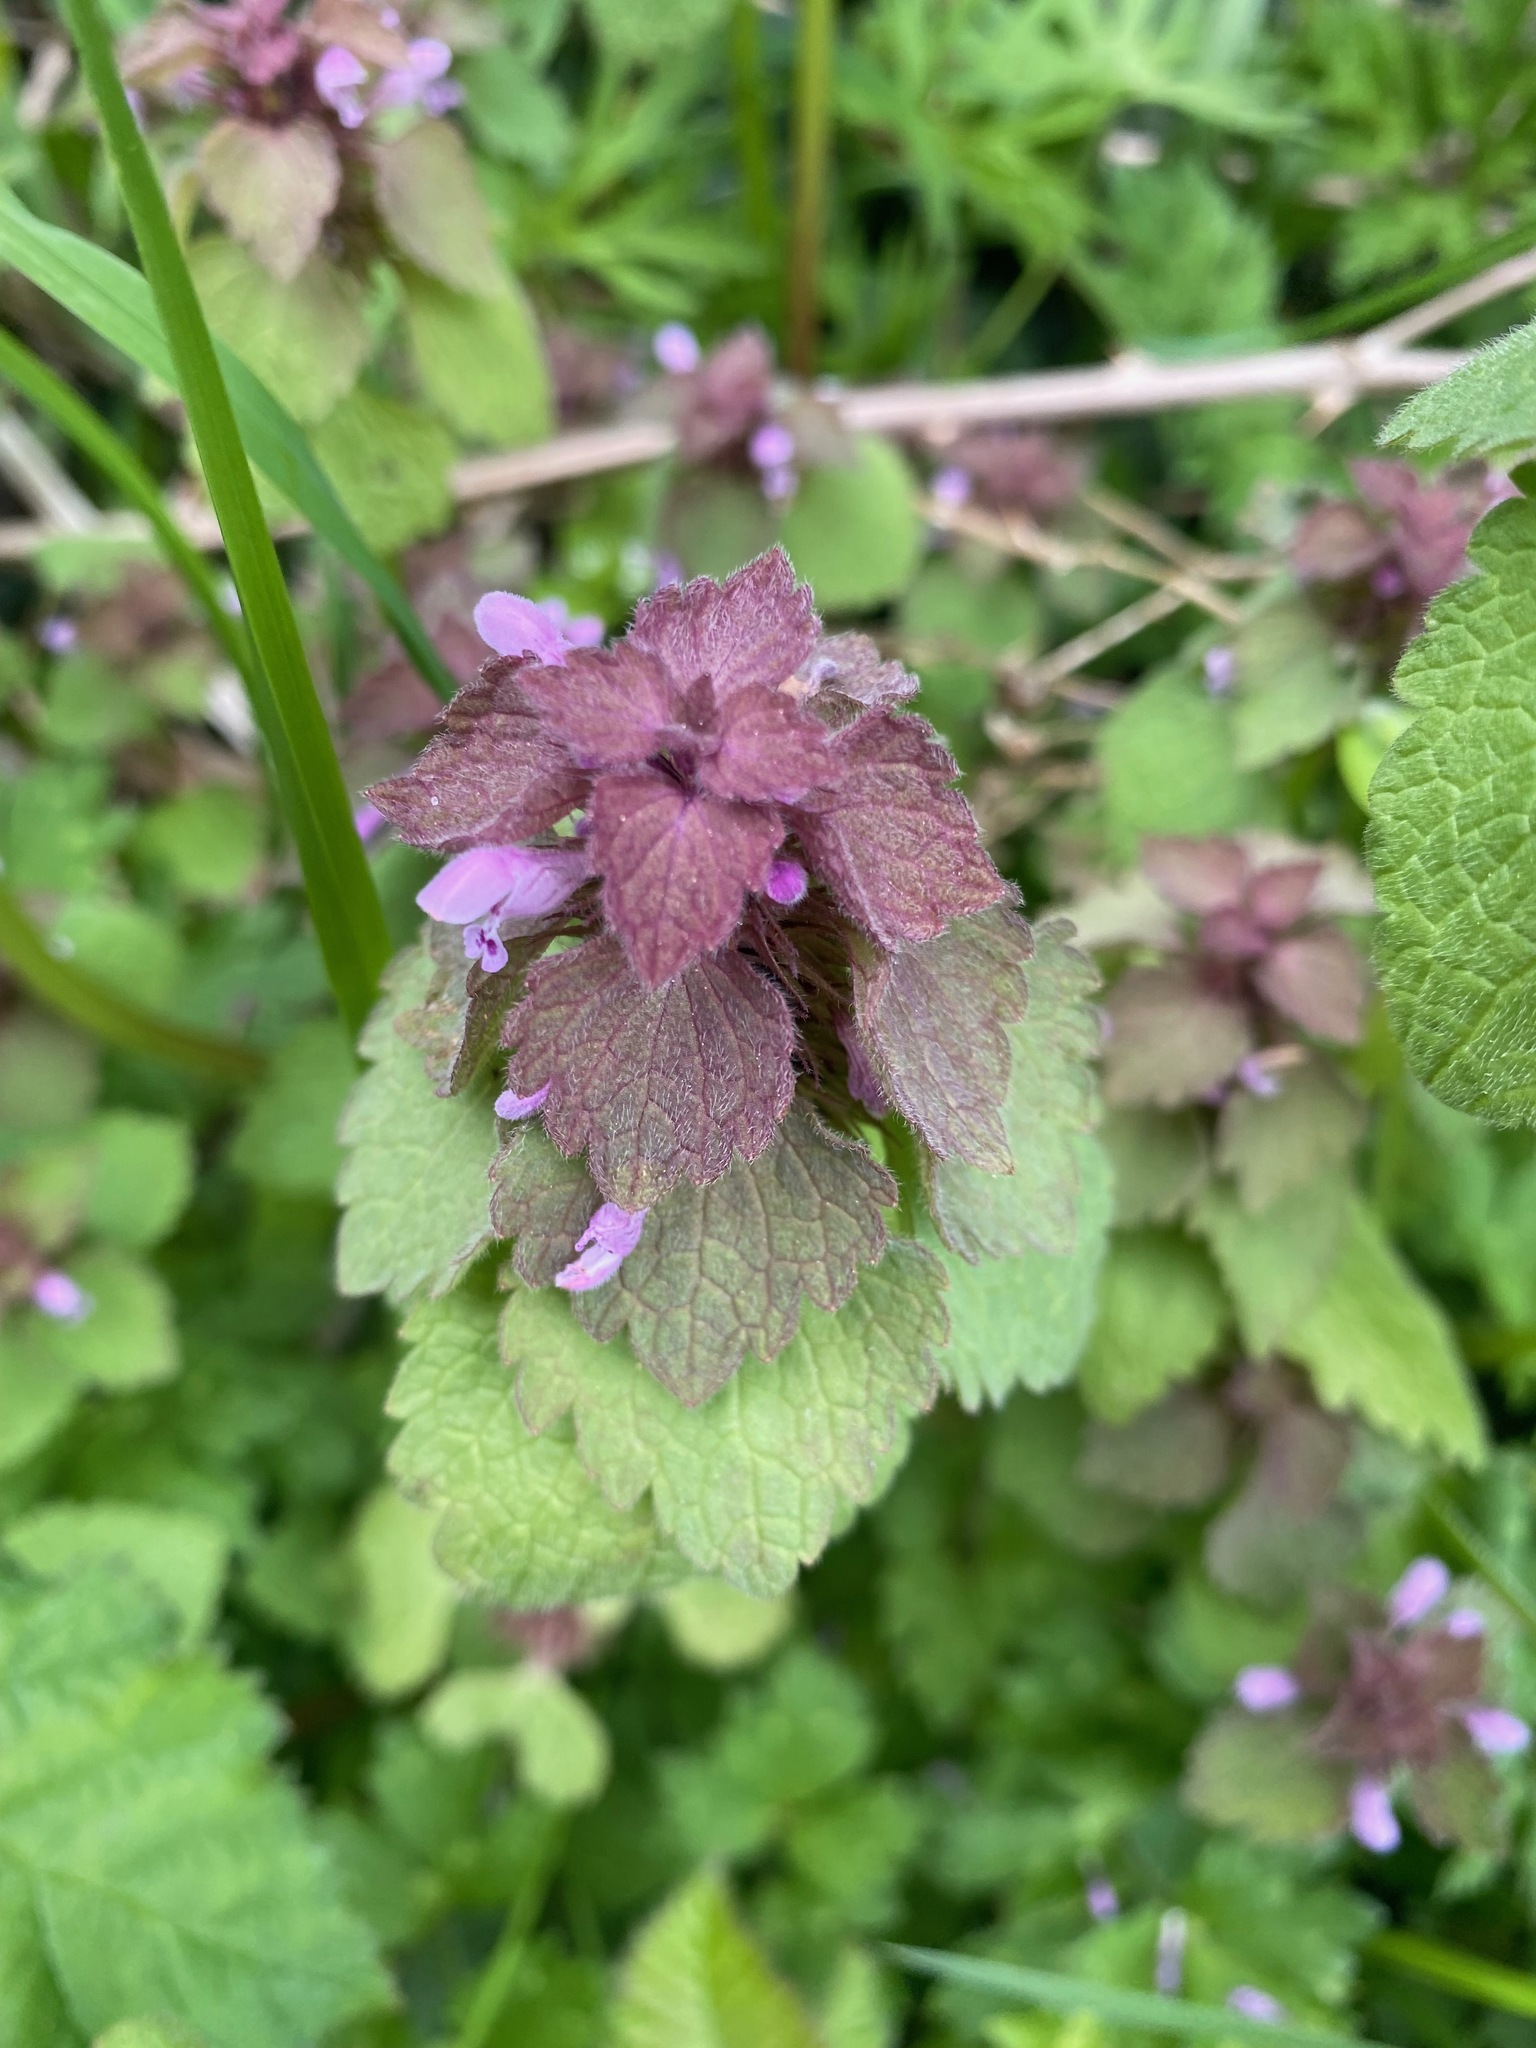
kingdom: Plantae
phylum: Tracheophyta
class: Magnoliopsida
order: Lamiales
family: Lamiaceae
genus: Lamium
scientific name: Lamium purpureum
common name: Red dead-nettle
